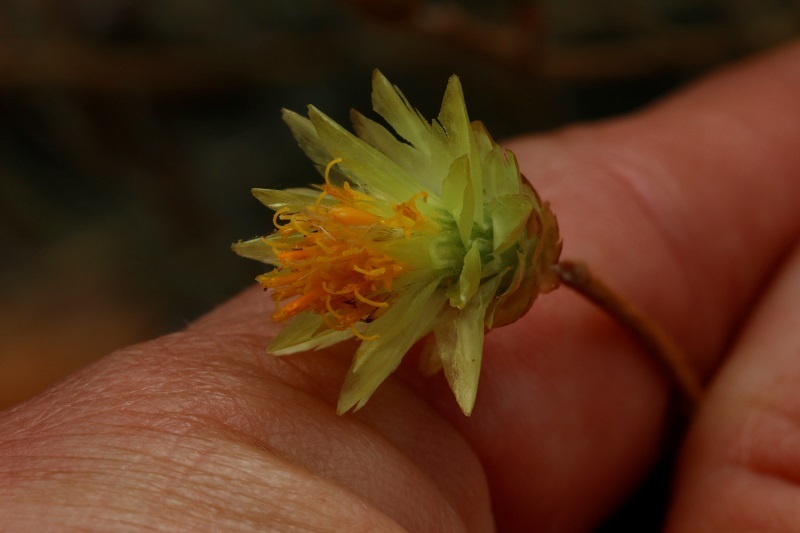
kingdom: Plantae
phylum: Tracheophyta
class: Magnoliopsida
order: Asterales
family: Asteraceae
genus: Syncarpha
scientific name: Syncarpha staehelina
